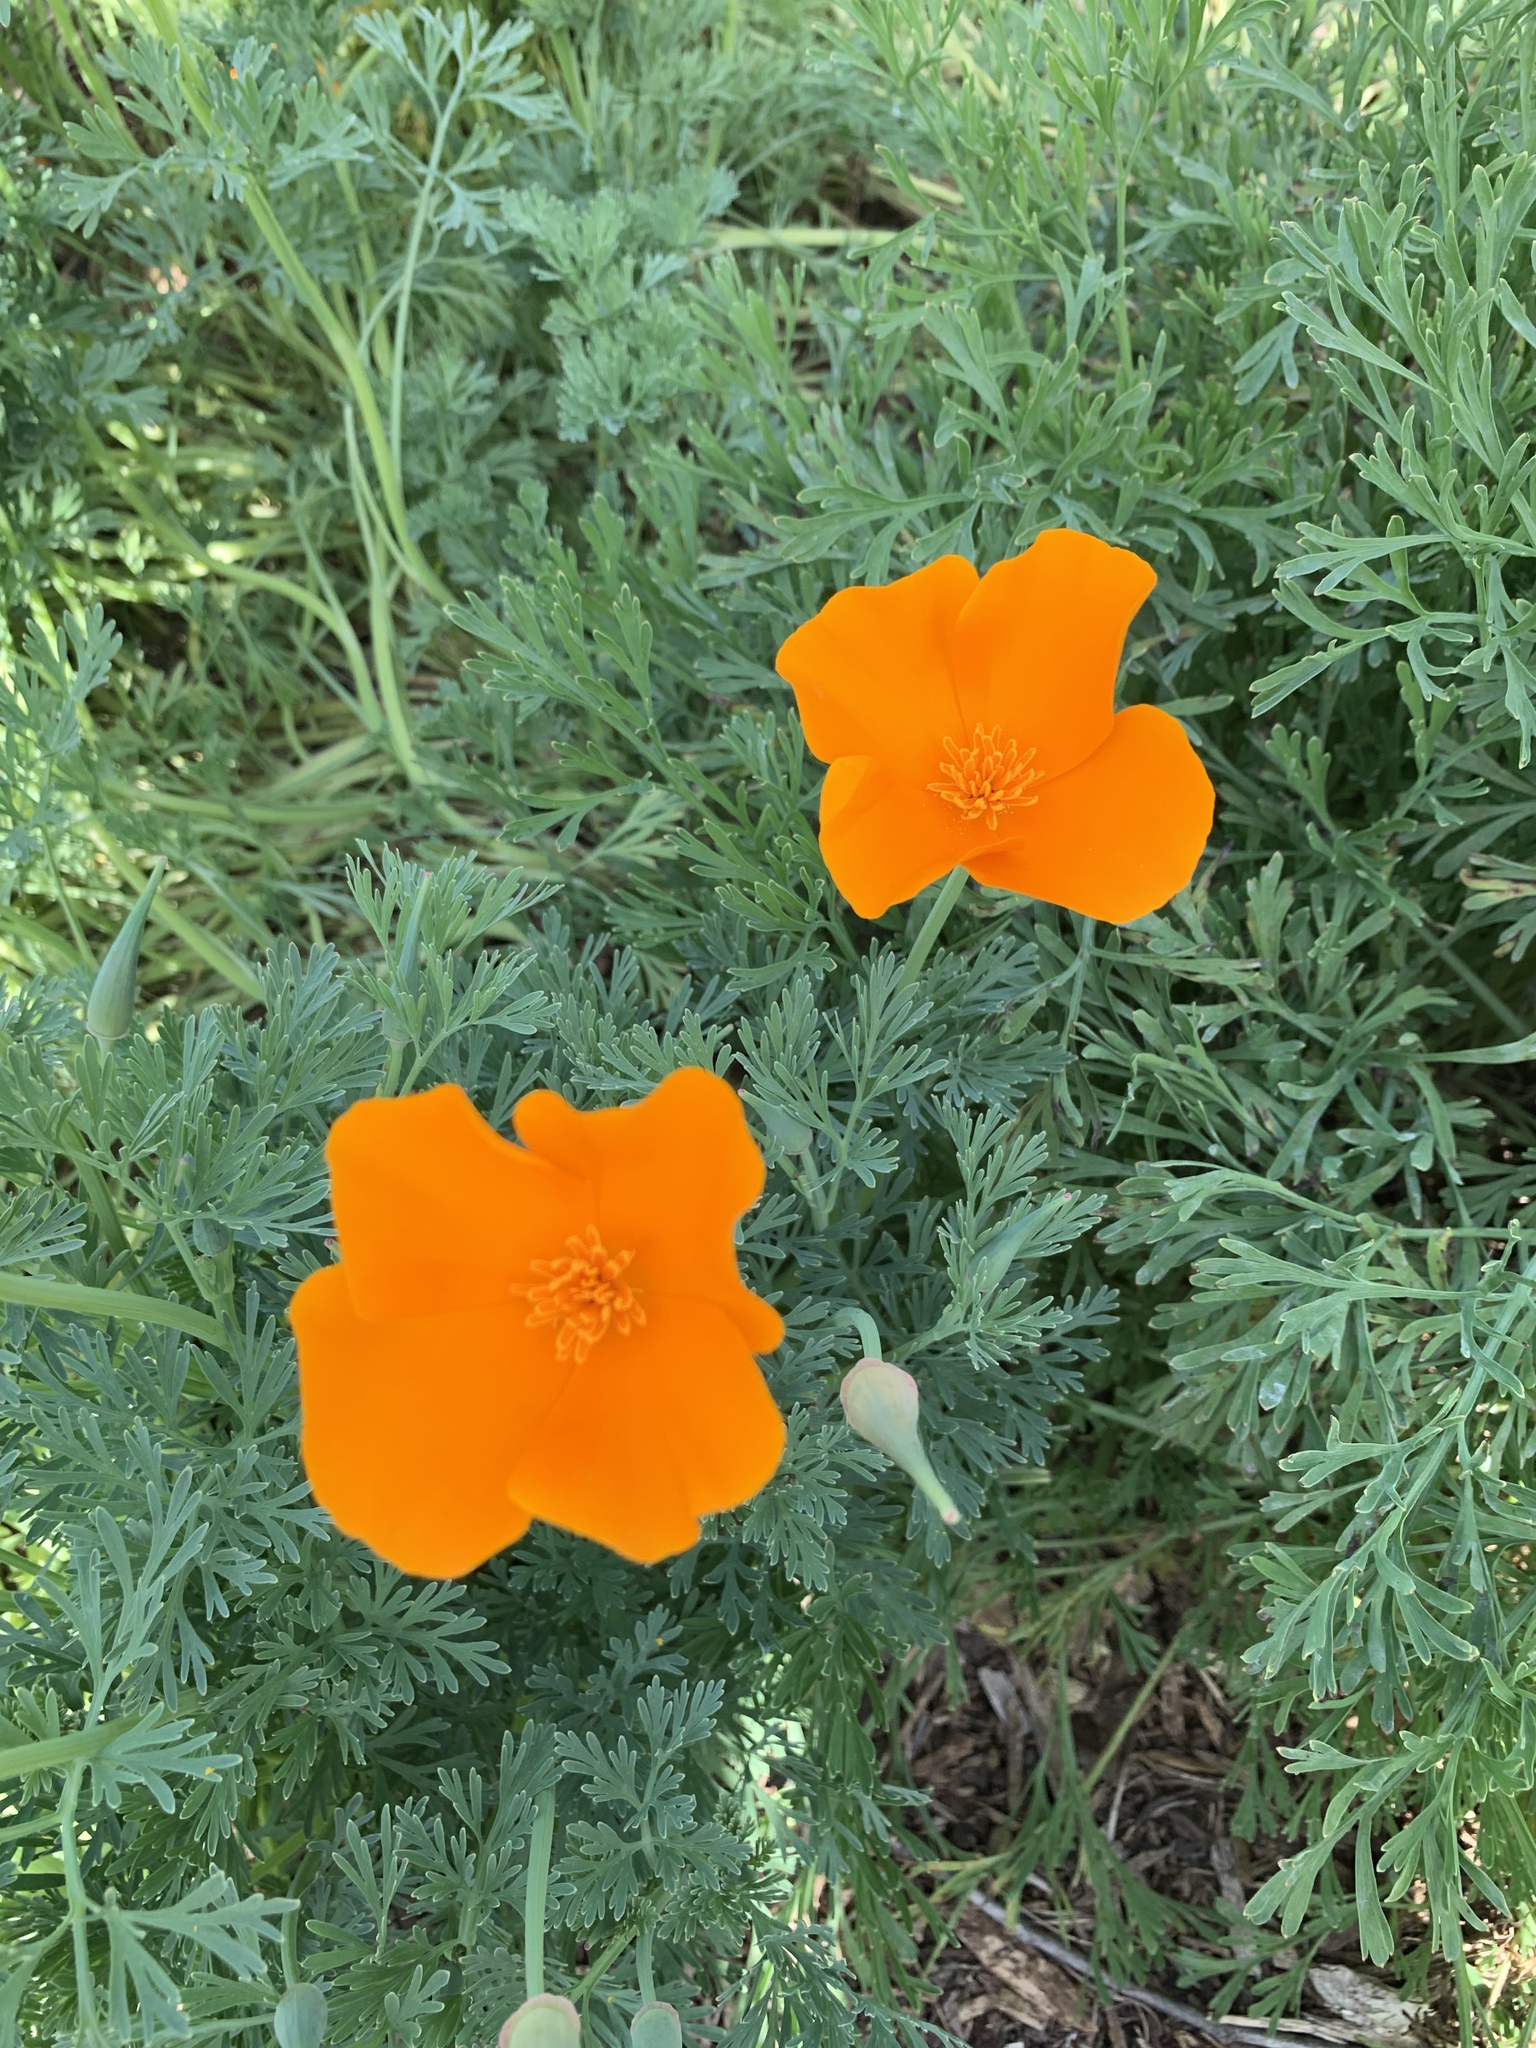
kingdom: Plantae
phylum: Tracheophyta
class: Magnoliopsida
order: Ranunculales
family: Papaveraceae
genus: Eschscholzia
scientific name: Eschscholzia californica
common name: California poppy
